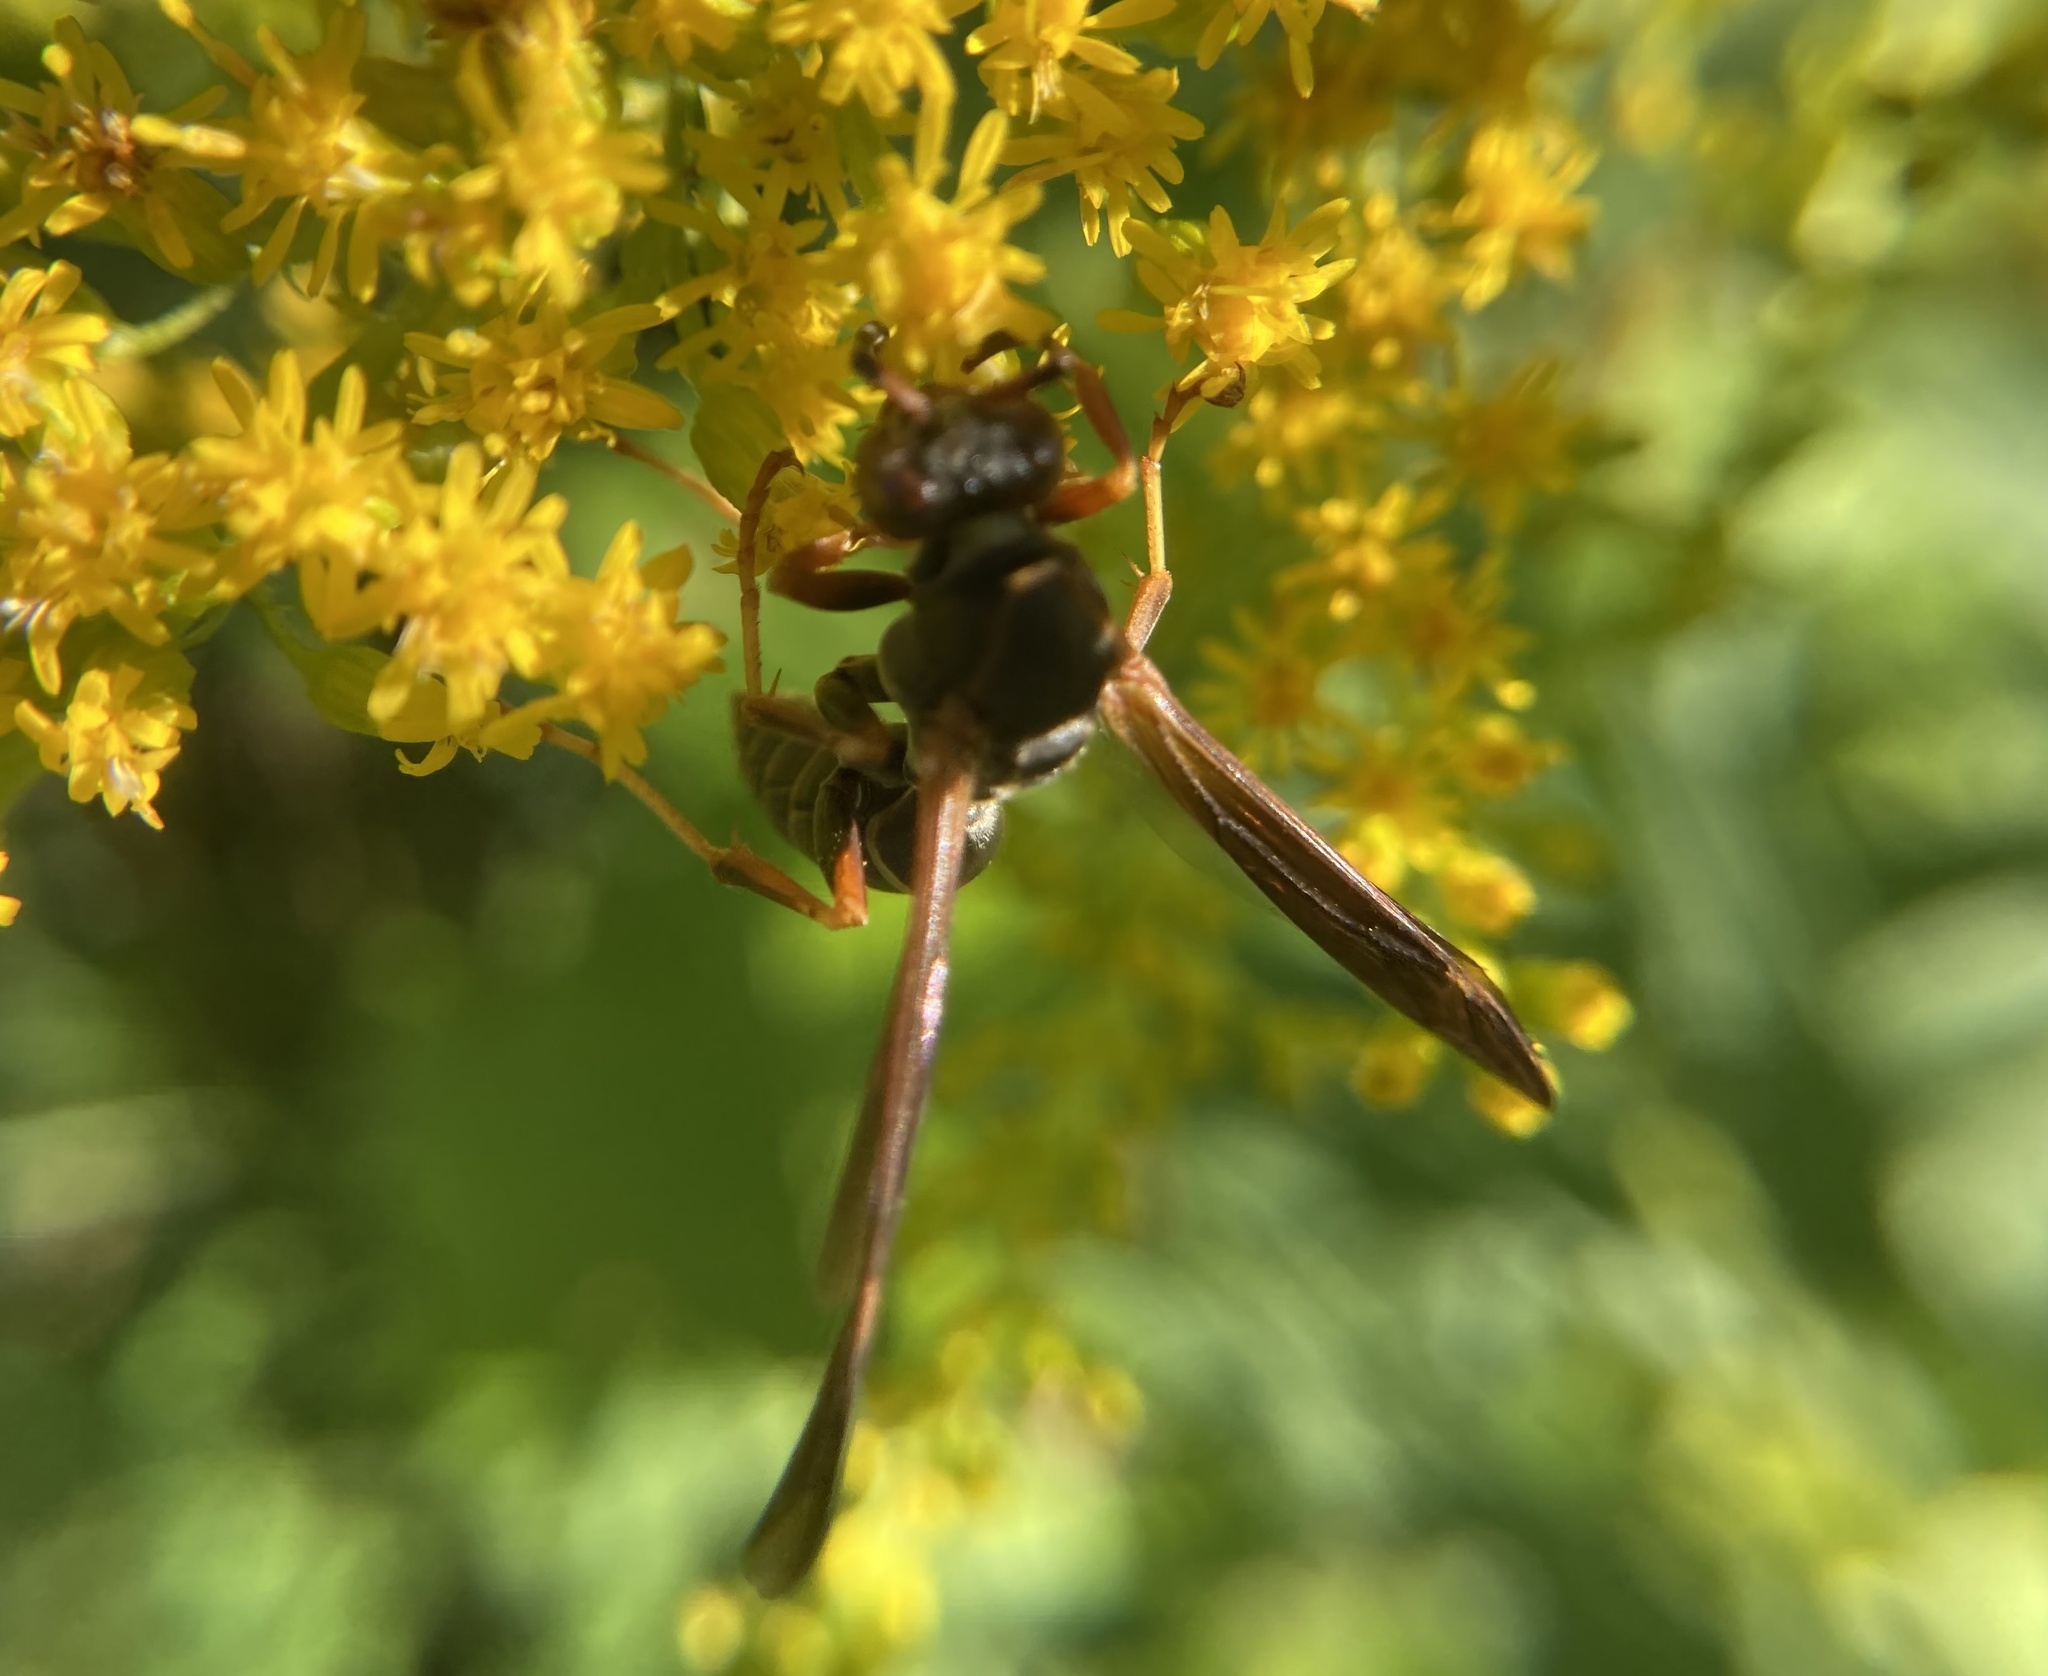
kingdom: Animalia
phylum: Arthropoda
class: Insecta
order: Hymenoptera
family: Eumenidae
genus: Polistes
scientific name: Polistes fuscatus
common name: Dark paper wasp
